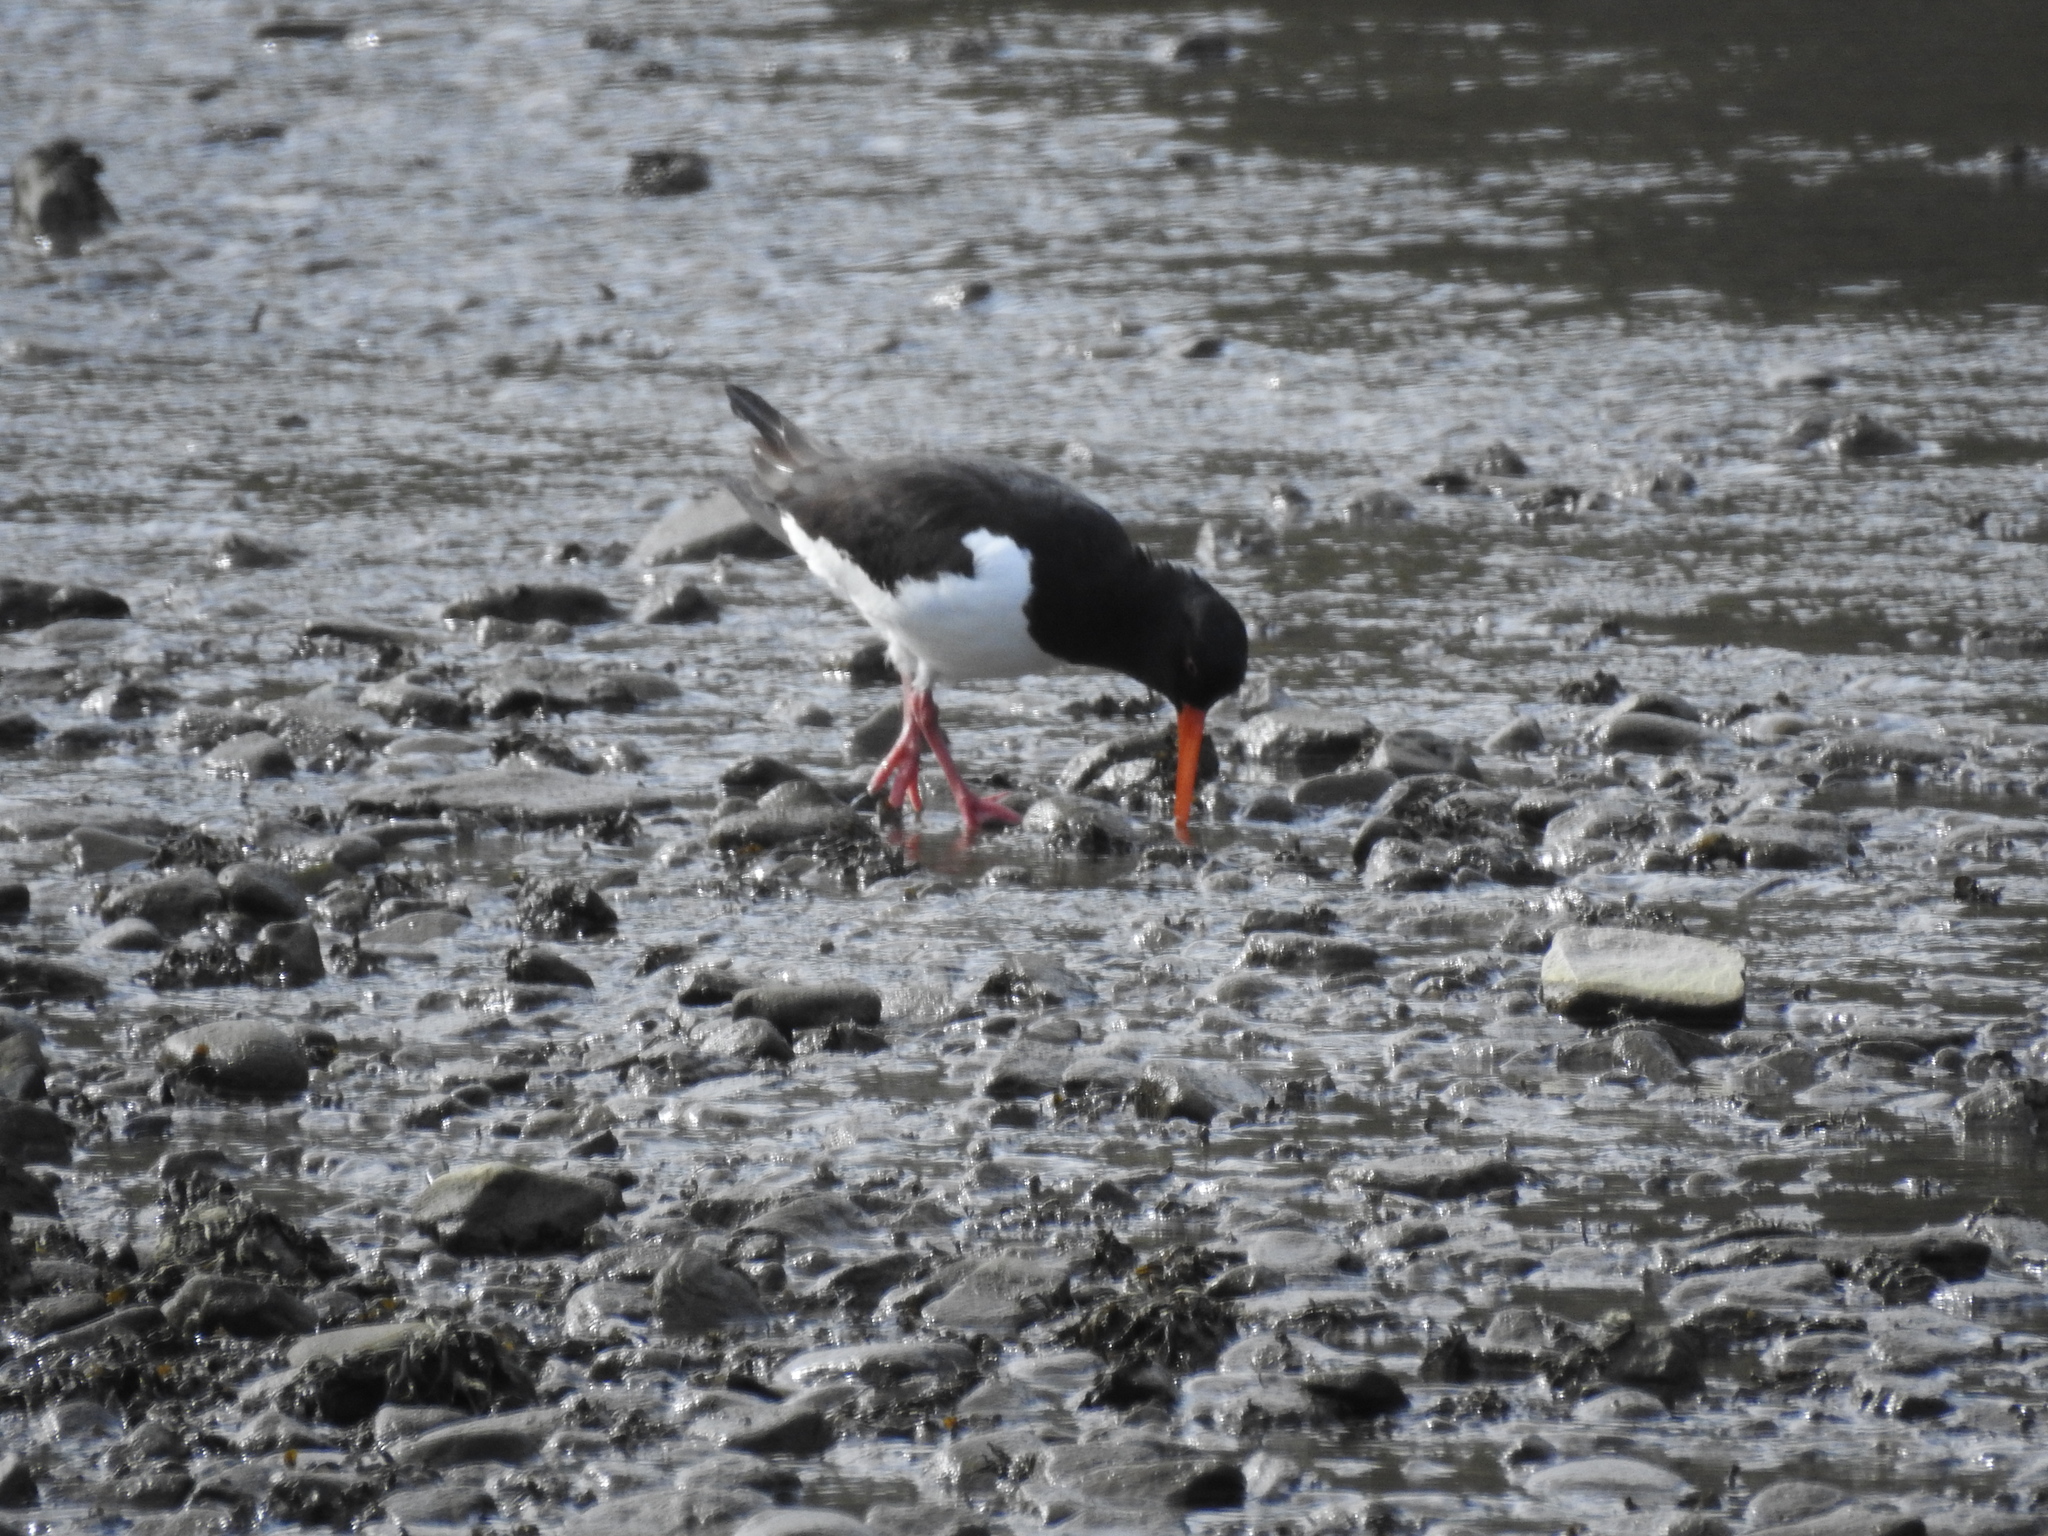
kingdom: Animalia
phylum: Chordata
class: Aves
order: Charadriiformes
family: Haematopodidae
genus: Haematopus
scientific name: Haematopus ostralegus
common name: Eurasian oystercatcher
